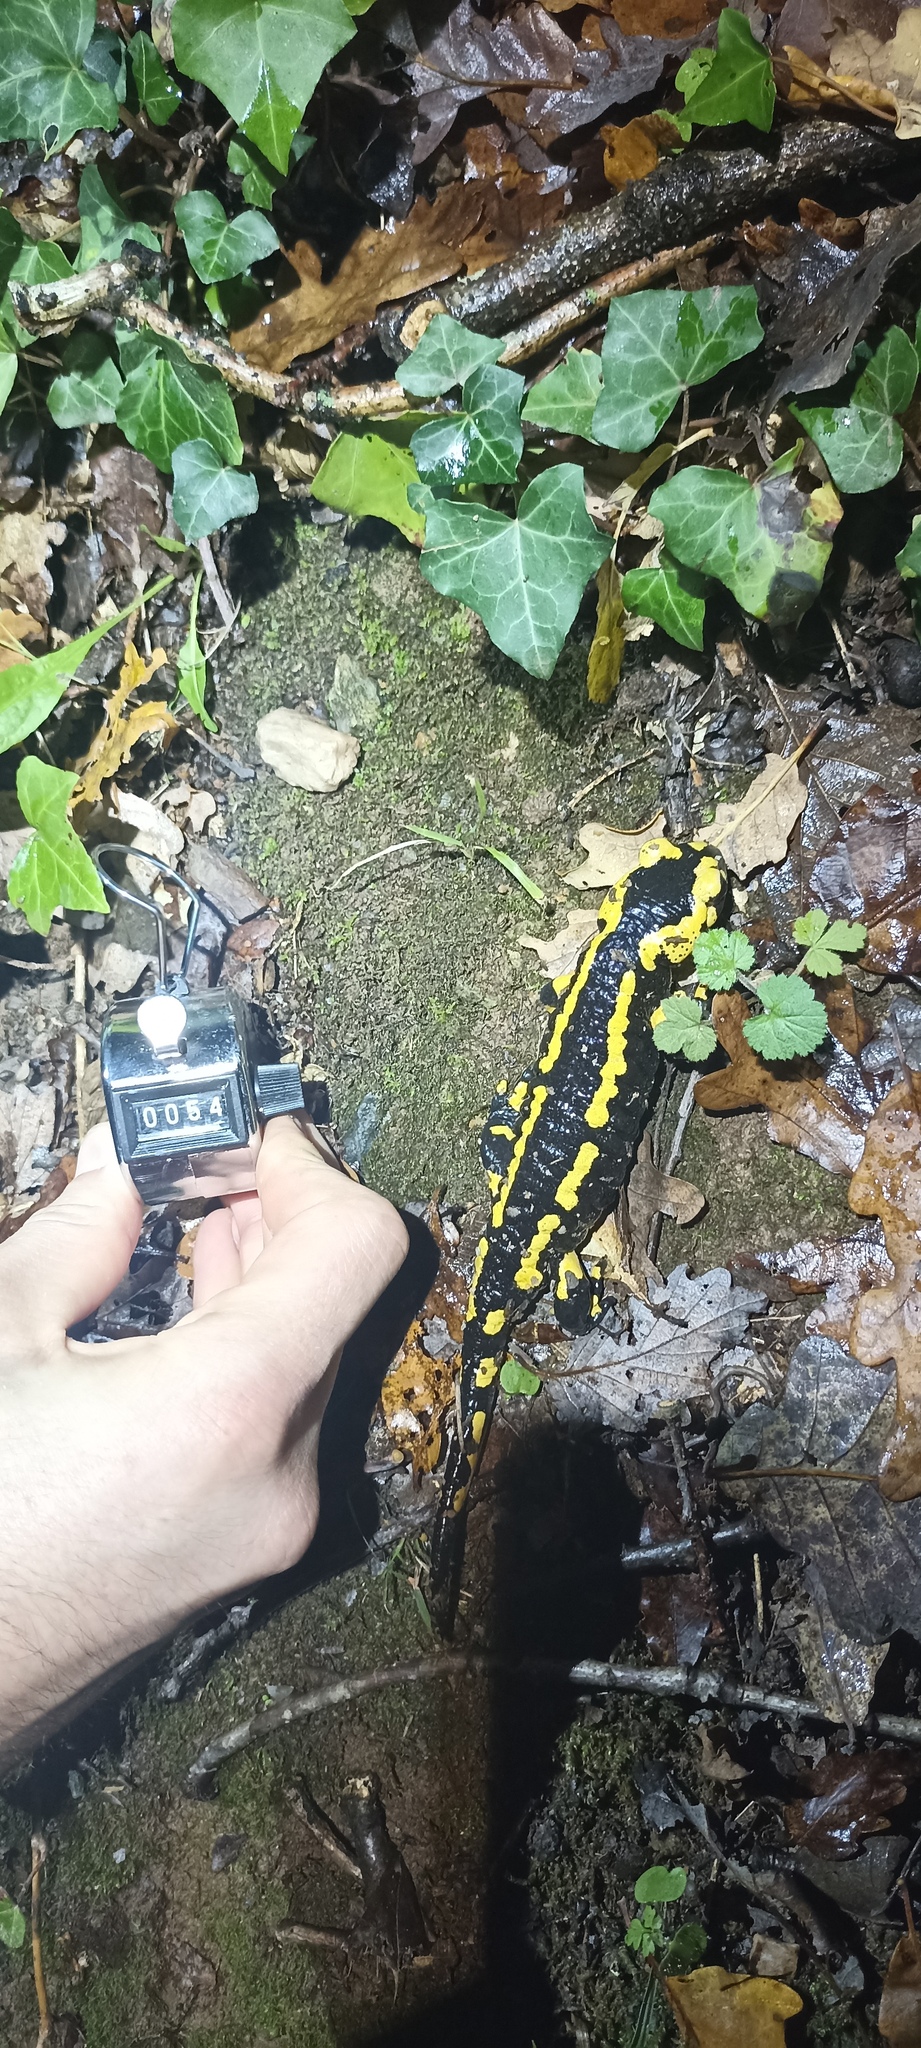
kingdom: Animalia
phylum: Chordata
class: Amphibia
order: Caudata
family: Salamandridae
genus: Salamandra
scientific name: Salamandra salamandra
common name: Fire salamander
